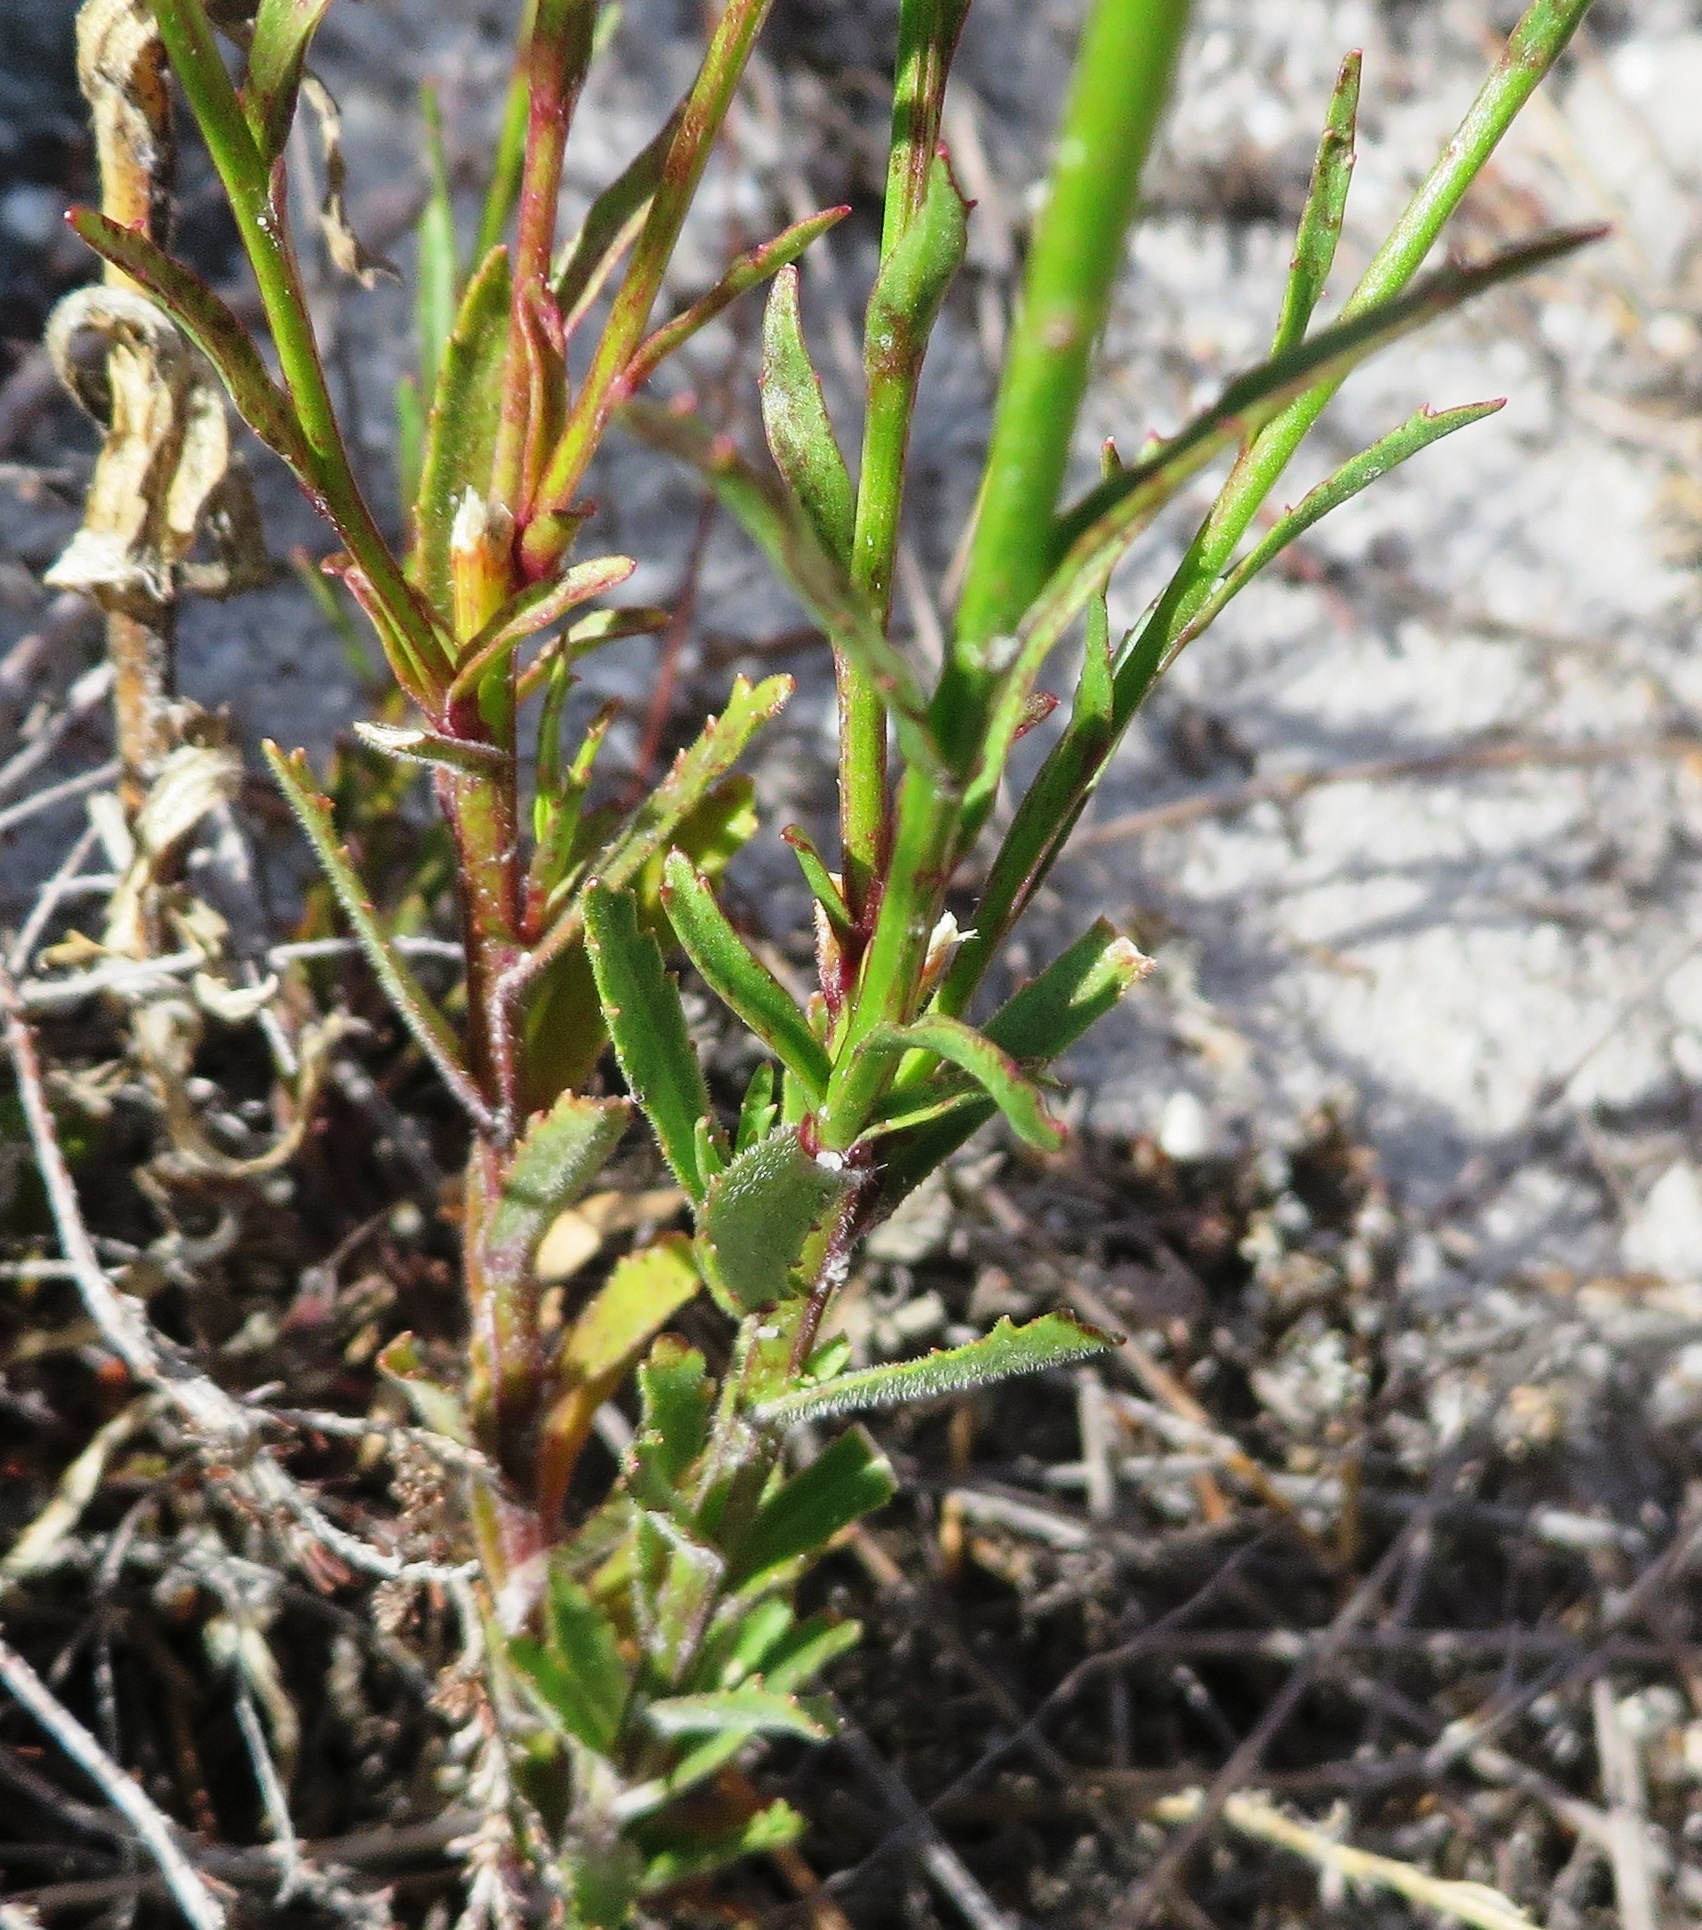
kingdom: Plantae
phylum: Tracheophyta
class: Magnoliopsida
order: Asterales
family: Campanulaceae
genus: Lobelia
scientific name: Lobelia comosa
